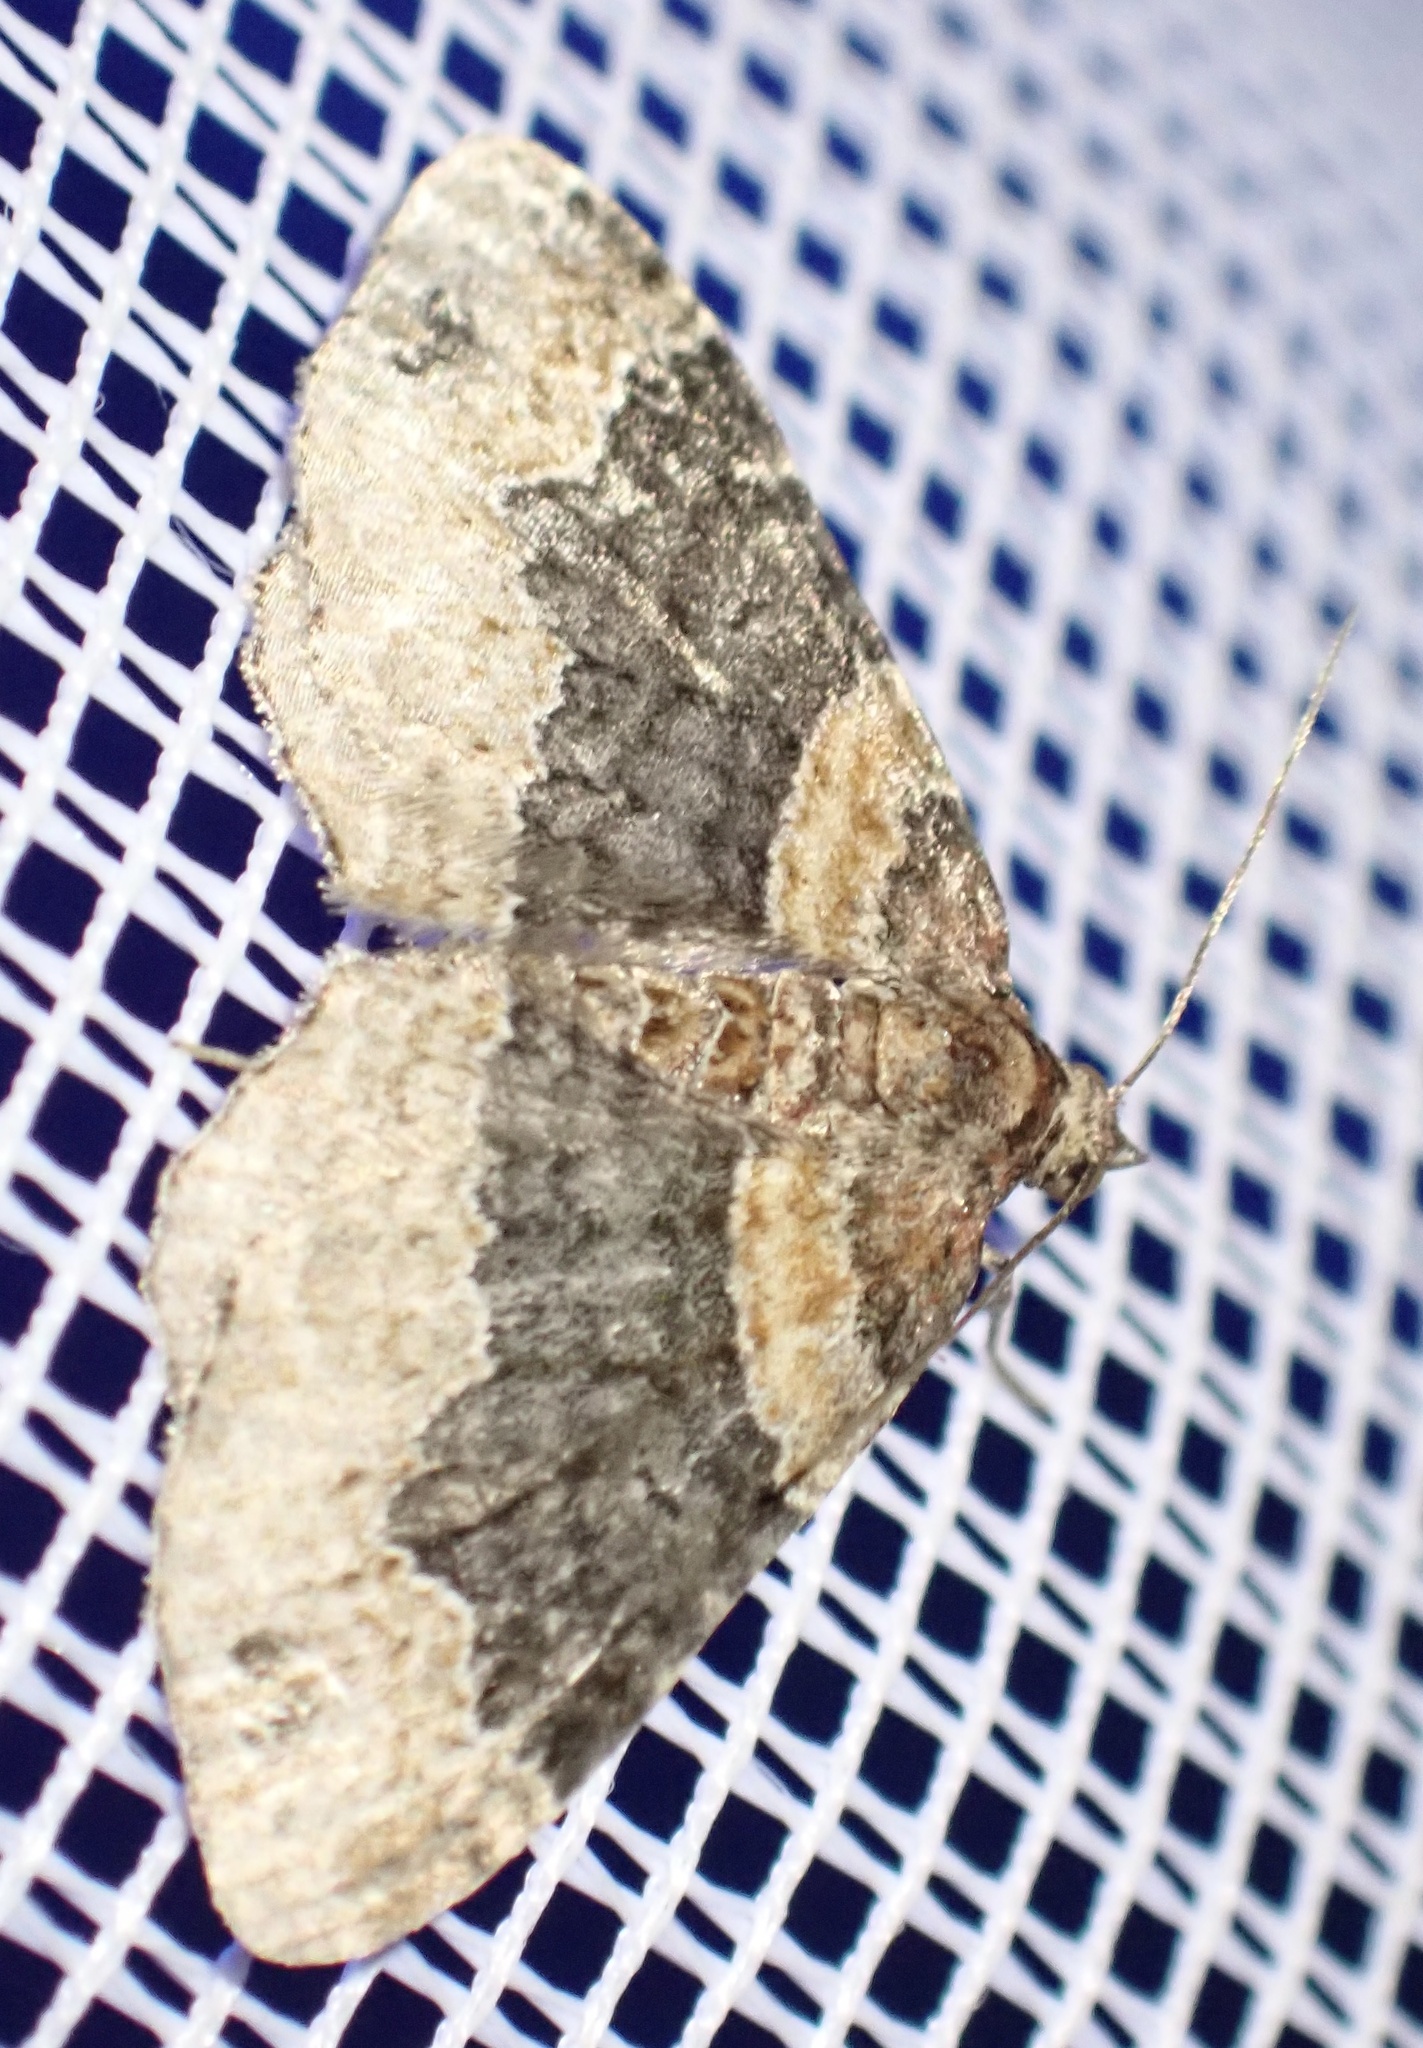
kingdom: Animalia
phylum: Arthropoda
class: Insecta
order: Lepidoptera
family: Geometridae
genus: Xanthorhoe
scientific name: Xanthorhoe ferrugata
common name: Dark-barred twin-spot carpet
